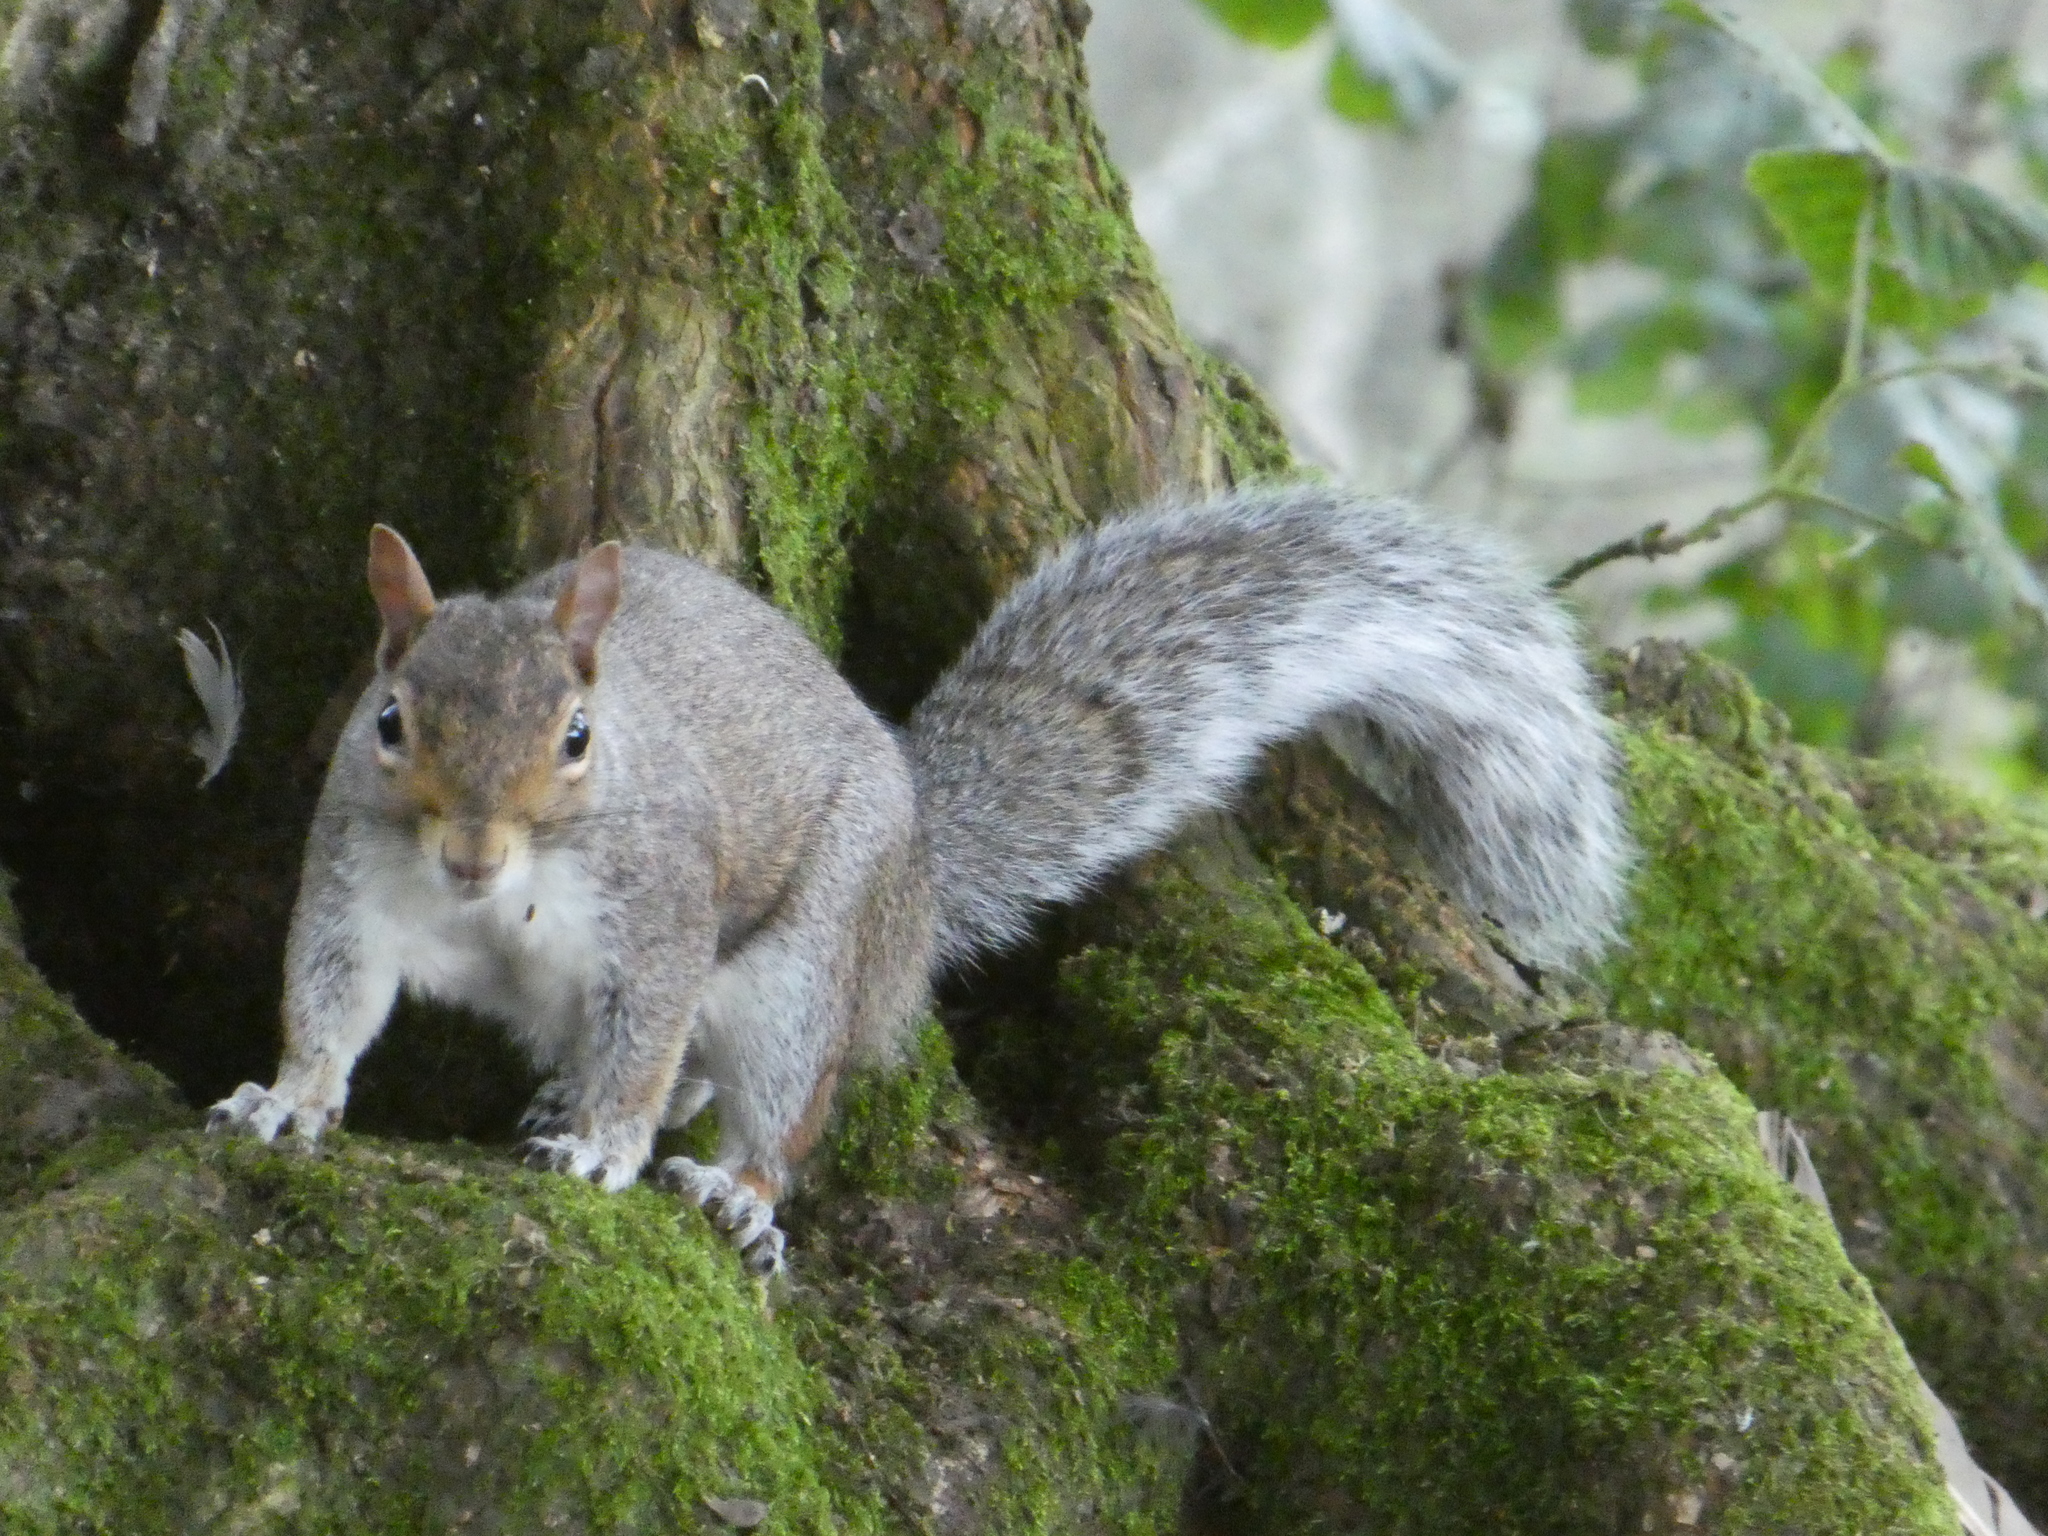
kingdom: Animalia
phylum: Chordata
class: Mammalia
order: Rodentia
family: Sciuridae
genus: Sciurus
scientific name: Sciurus carolinensis
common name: Eastern gray squirrel
